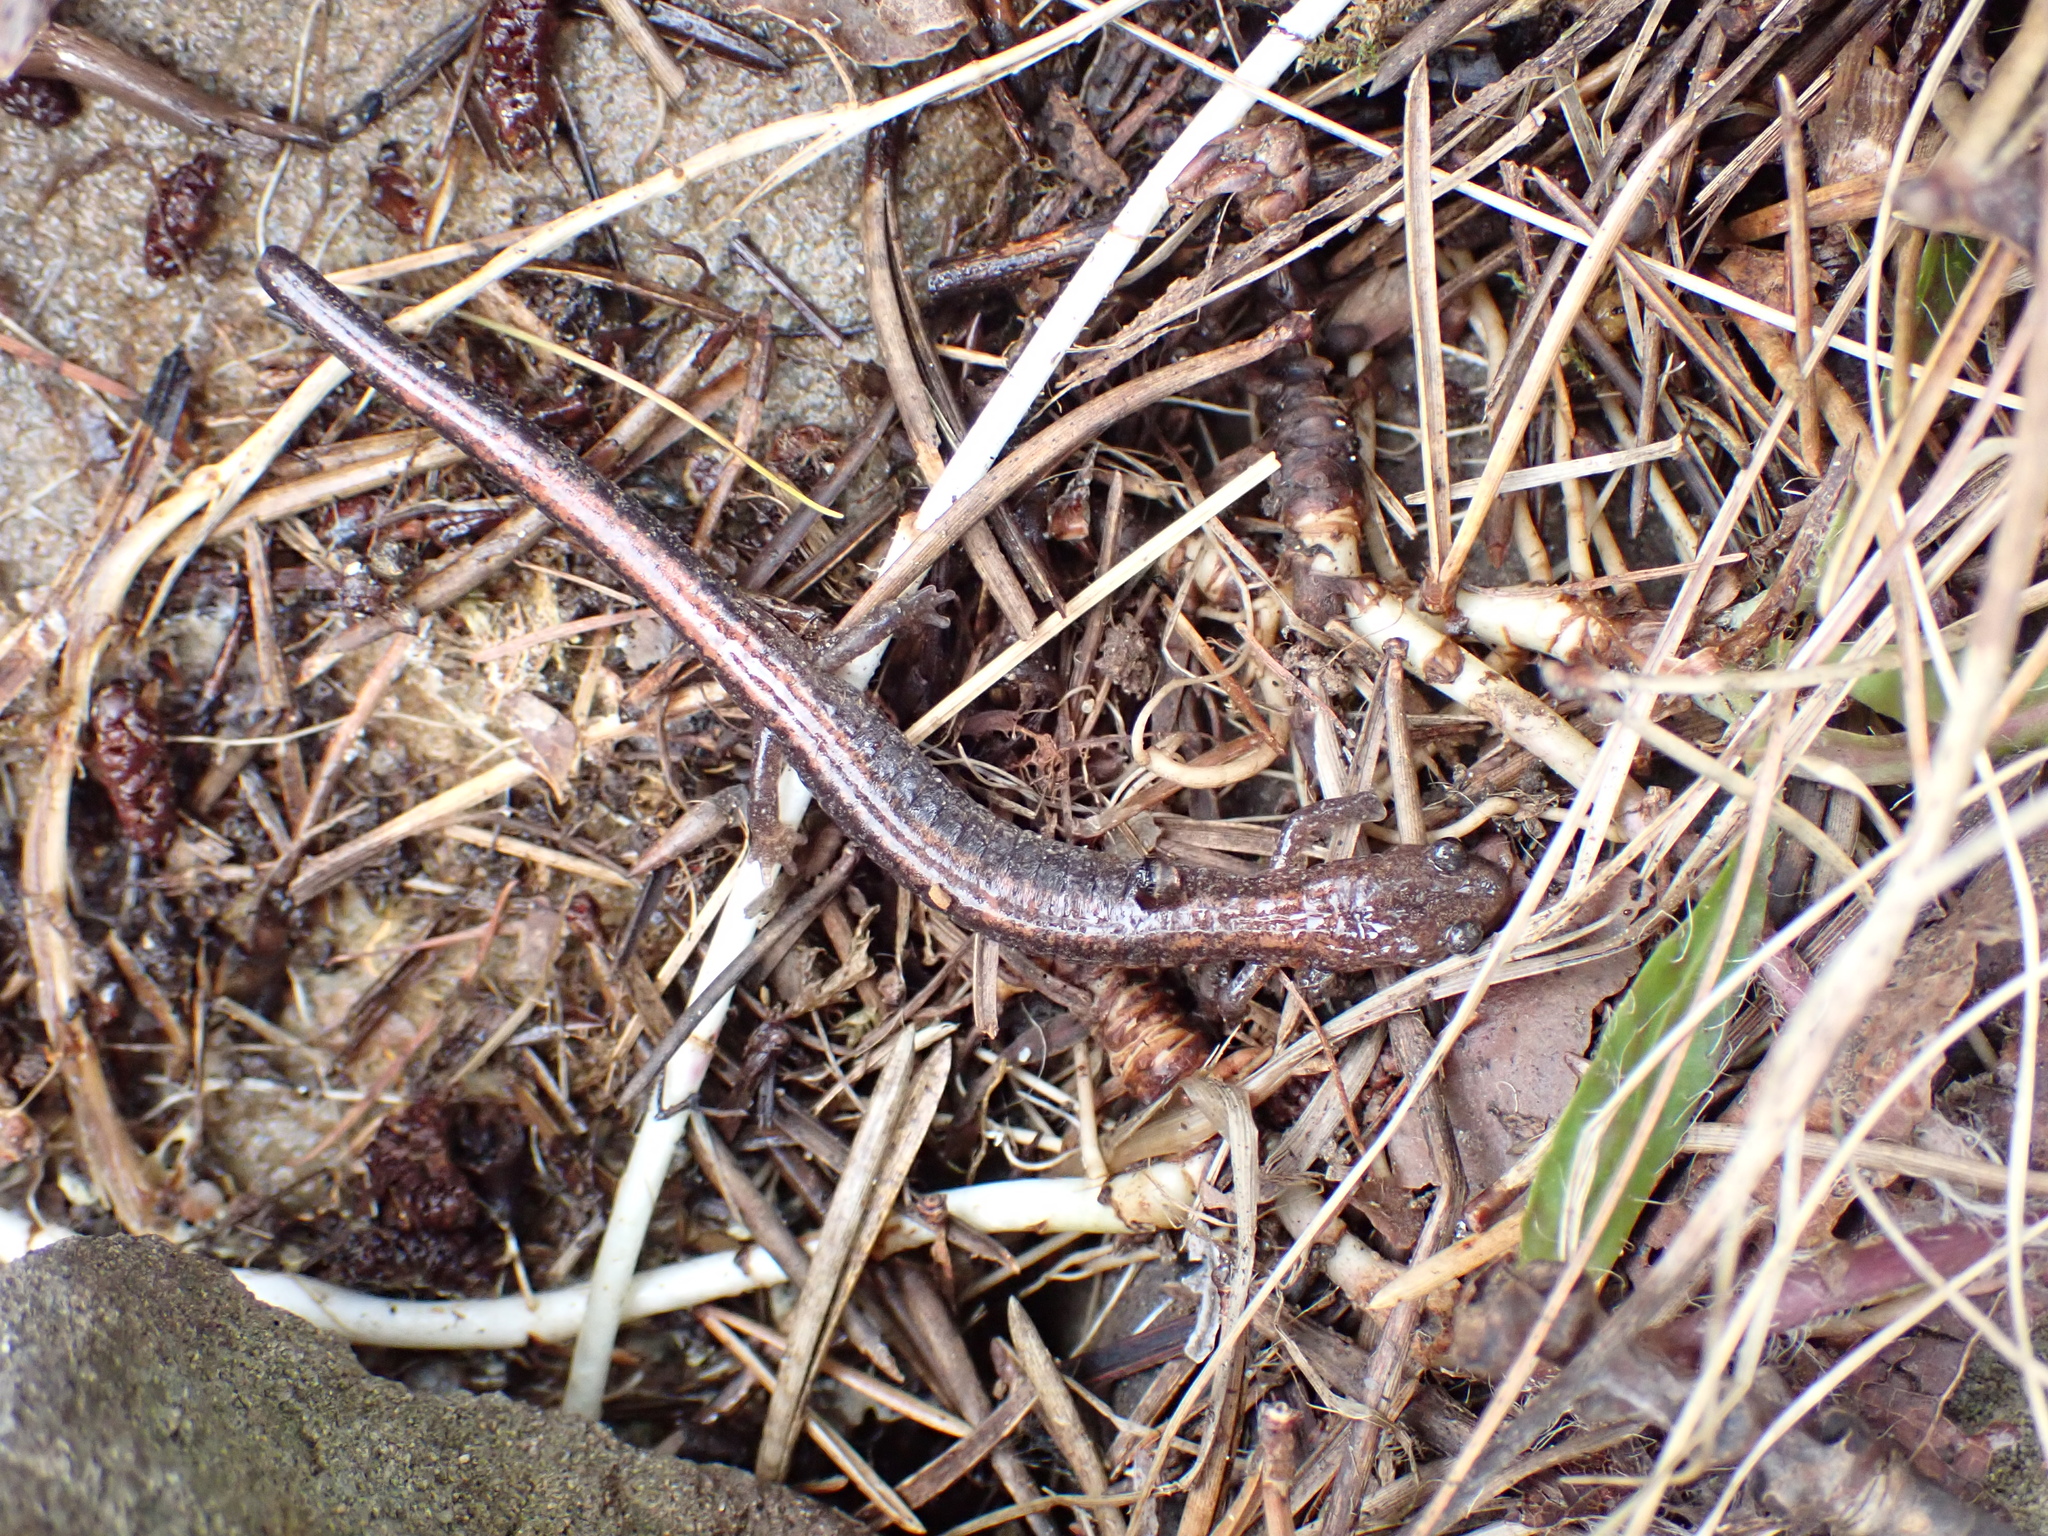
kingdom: Animalia
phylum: Chordata
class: Amphibia
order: Caudata
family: Plethodontidae
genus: Plethodon
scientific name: Plethodon cinereus
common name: Redback salamander
